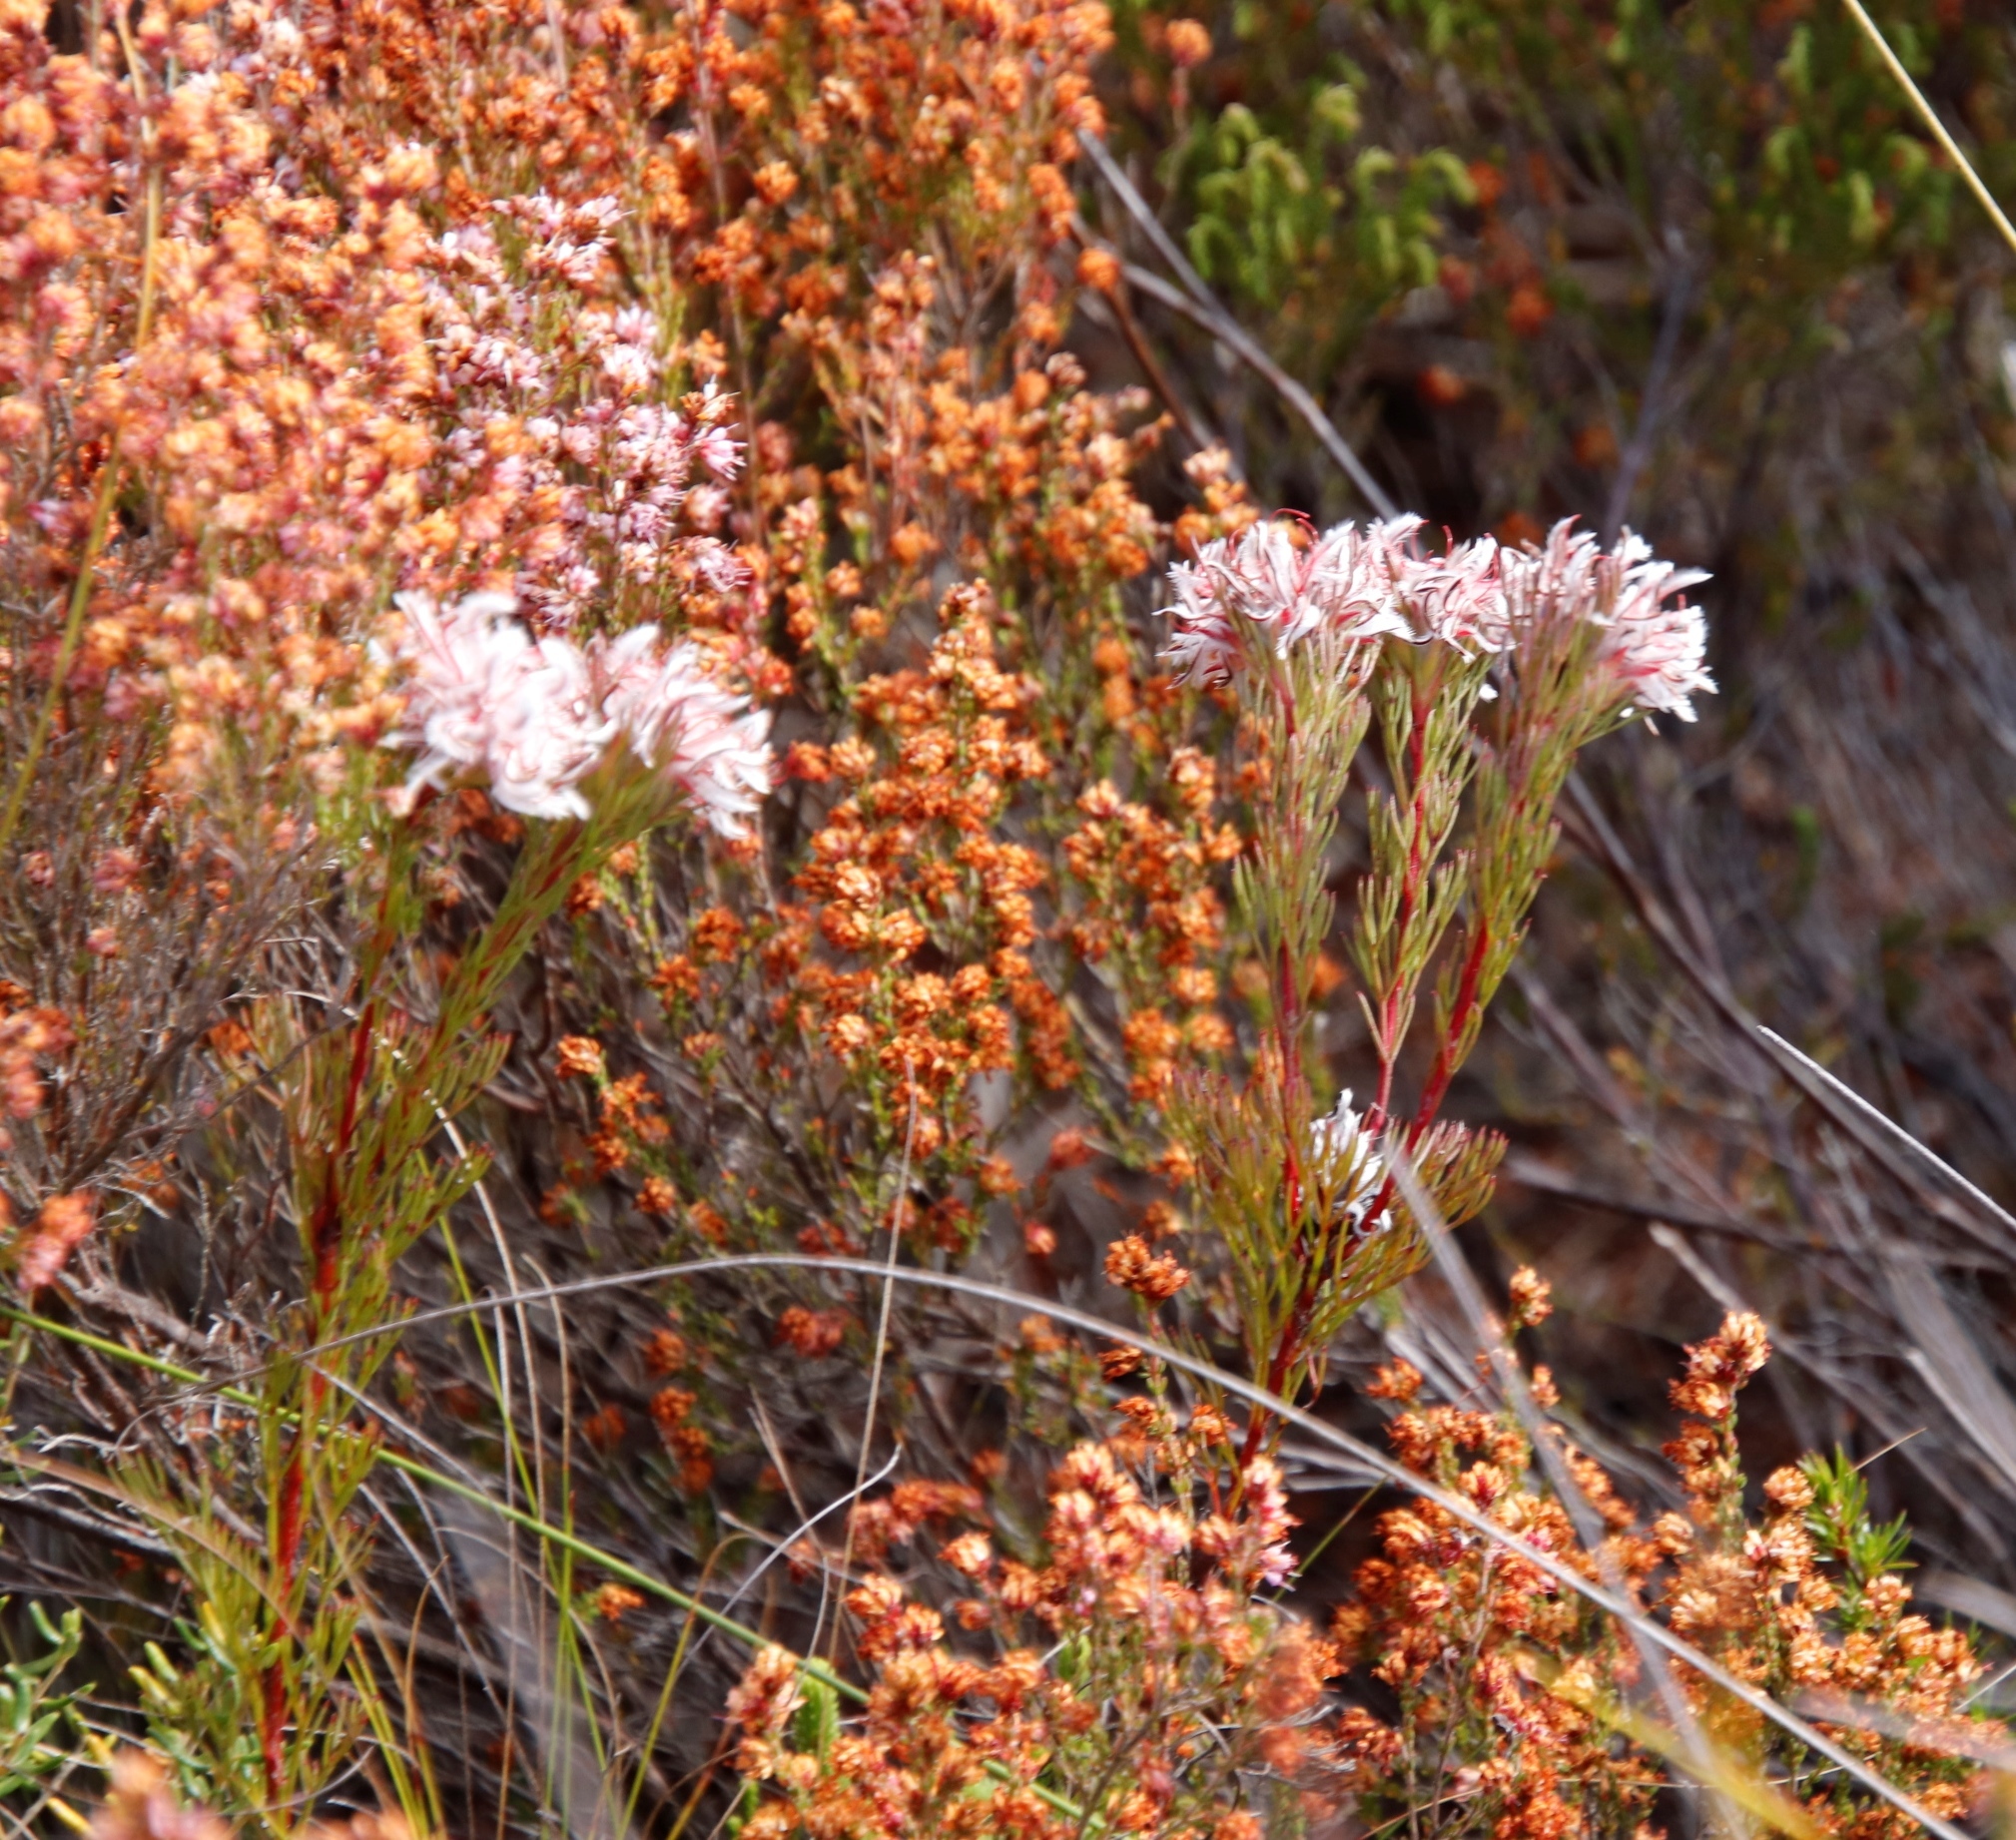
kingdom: Plantae
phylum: Tracheophyta
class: Magnoliopsida
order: Proteales
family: Proteaceae
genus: Serruria
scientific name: Serruria rostellaris
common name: Remote spiderhead
